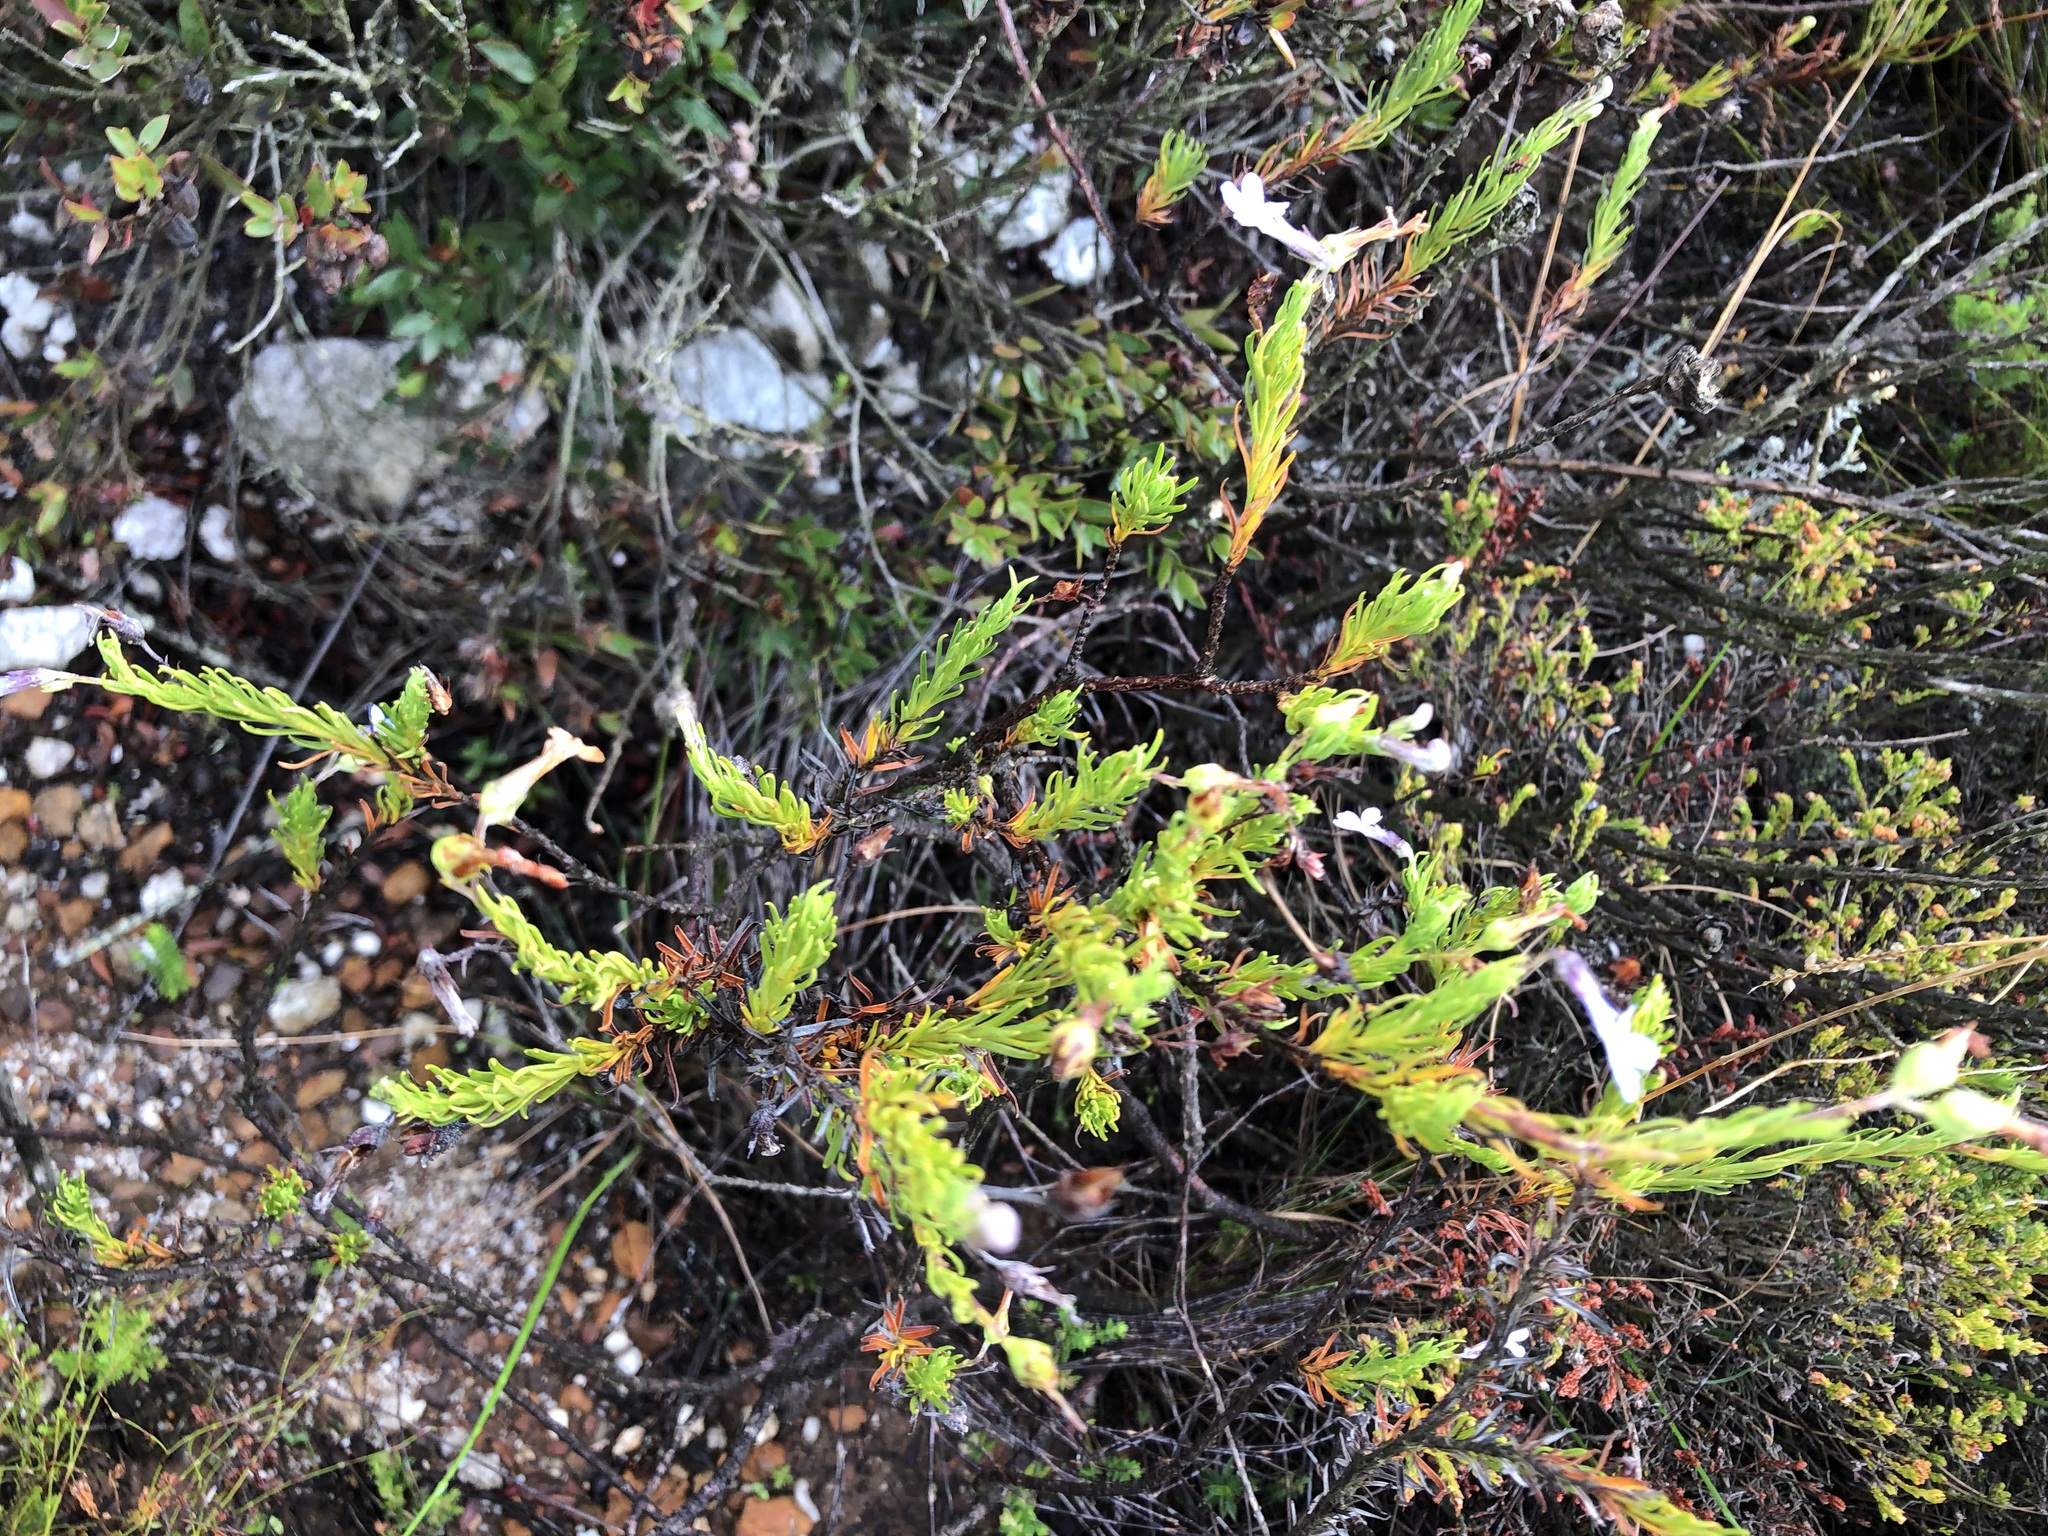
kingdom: Plantae
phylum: Tracheophyta
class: Magnoliopsida
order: Asterales
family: Campanulaceae
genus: Lobelia
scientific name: Lobelia pinifolia
